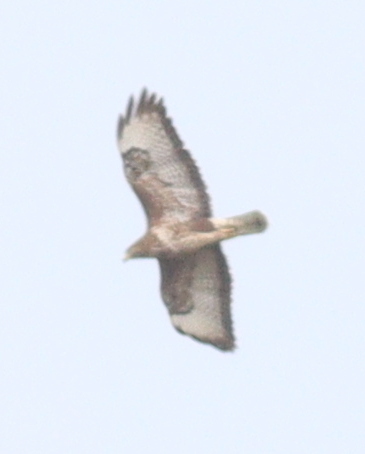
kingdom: Animalia
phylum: Chordata
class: Aves
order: Accipitriformes
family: Accipitridae
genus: Buteo
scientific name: Buteo buteo
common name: Common buzzard
